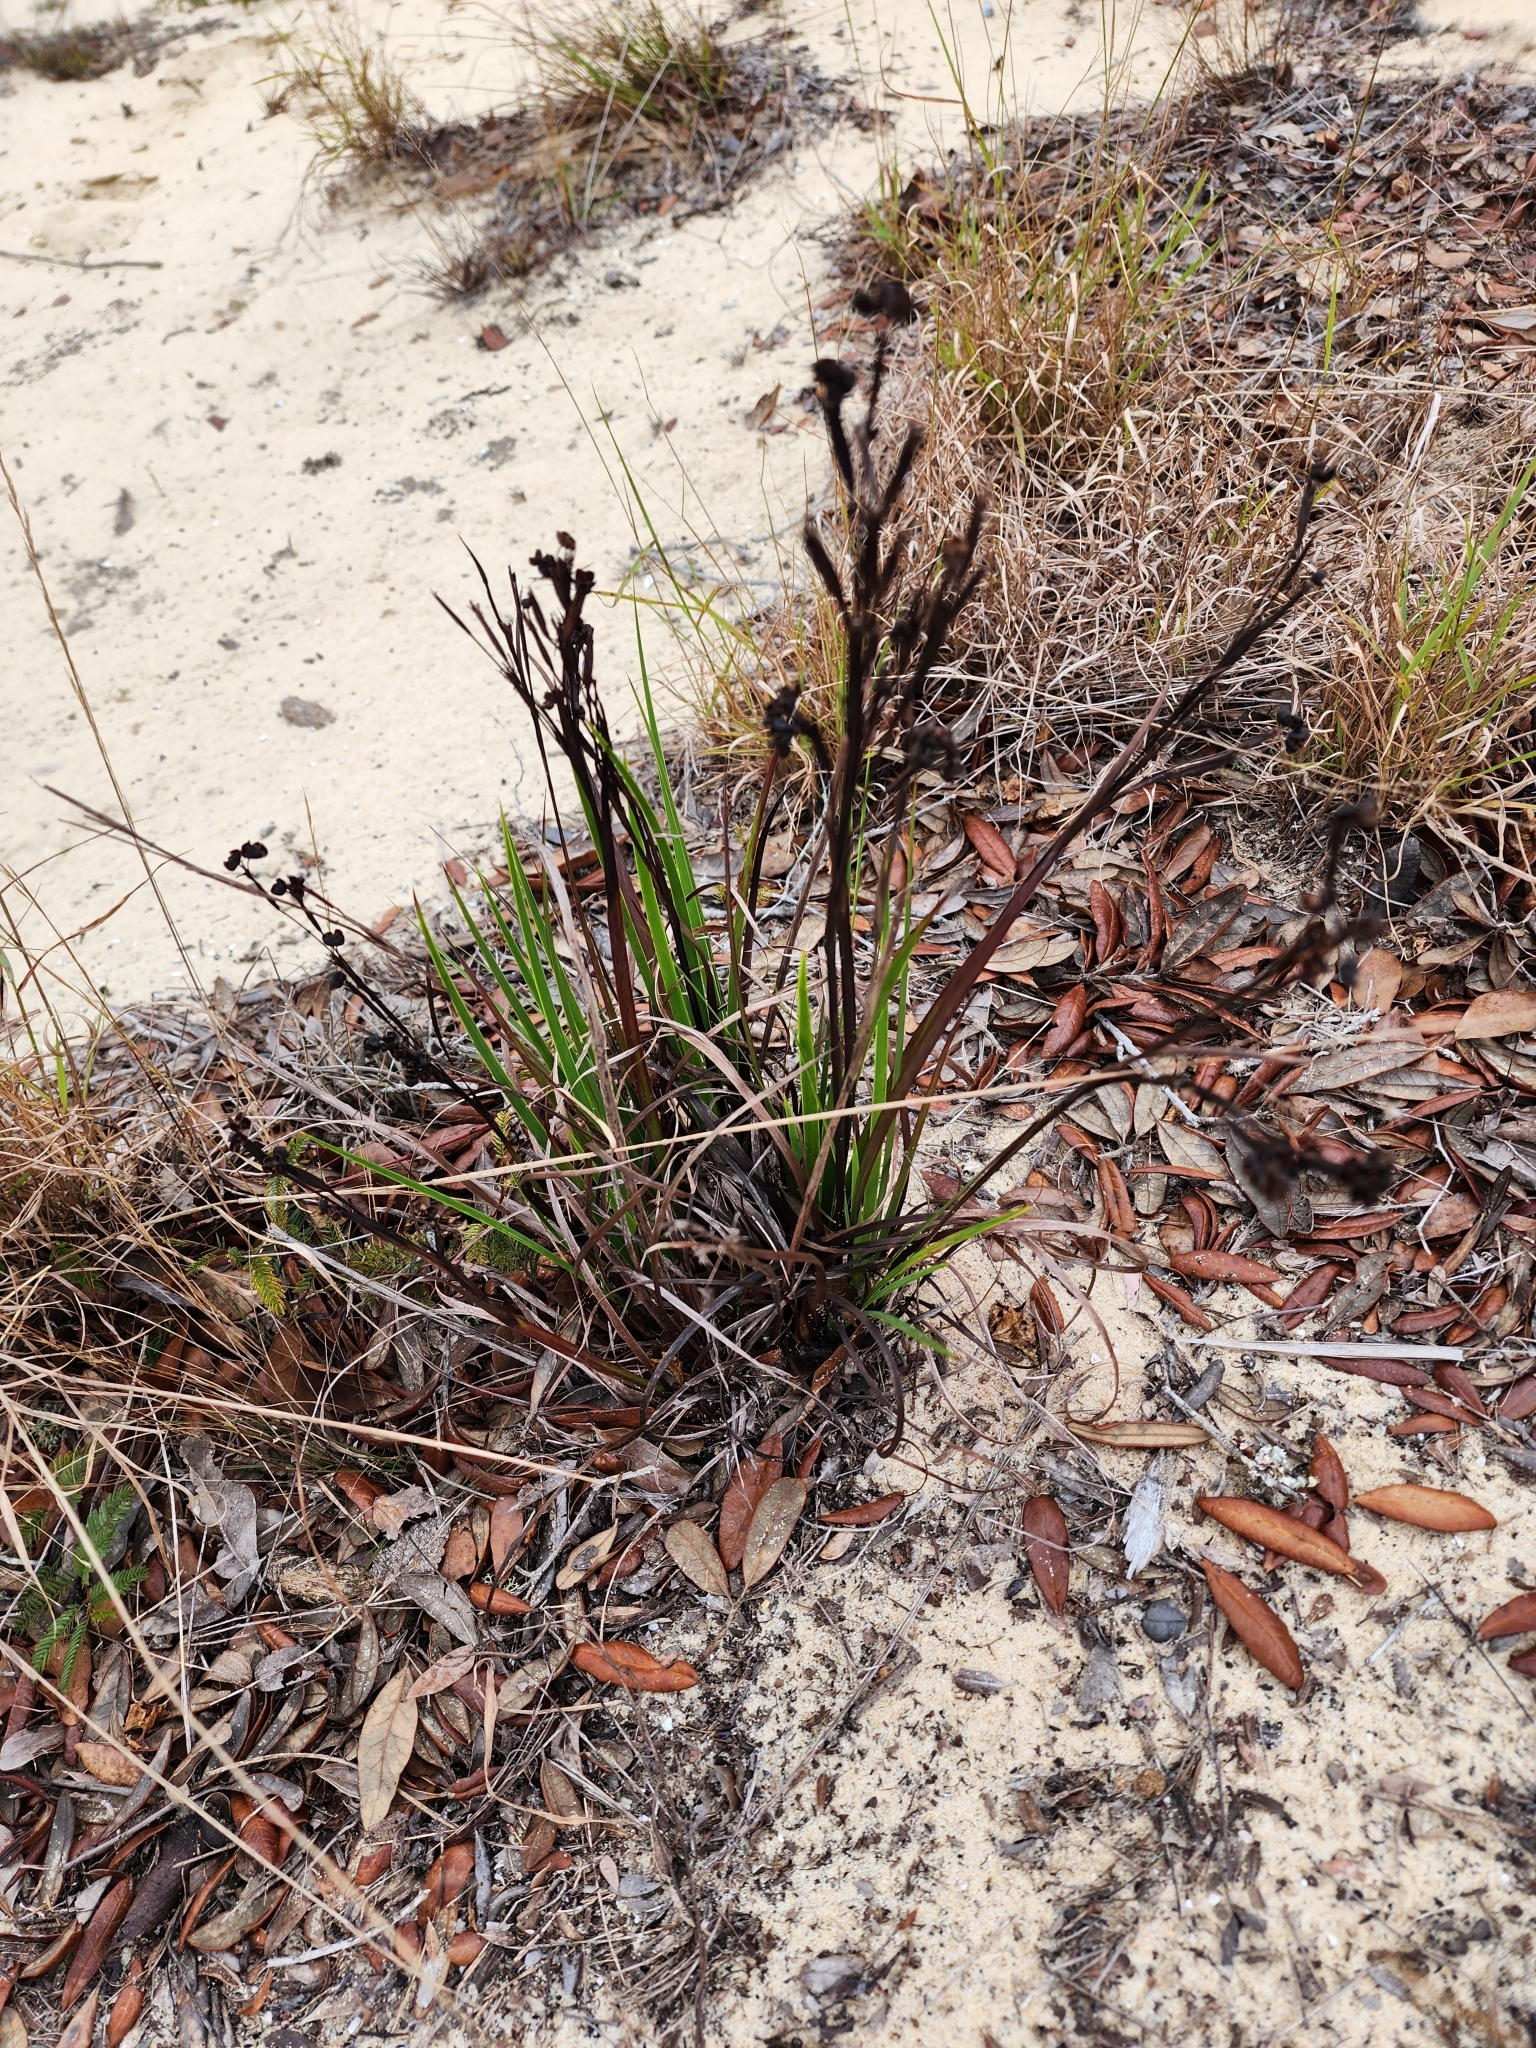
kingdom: Plantae
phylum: Tracheophyta
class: Liliopsida
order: Asparagales
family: Iridaceae
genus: Sisyrinchium
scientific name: Sisyrinchium xerophyllum
